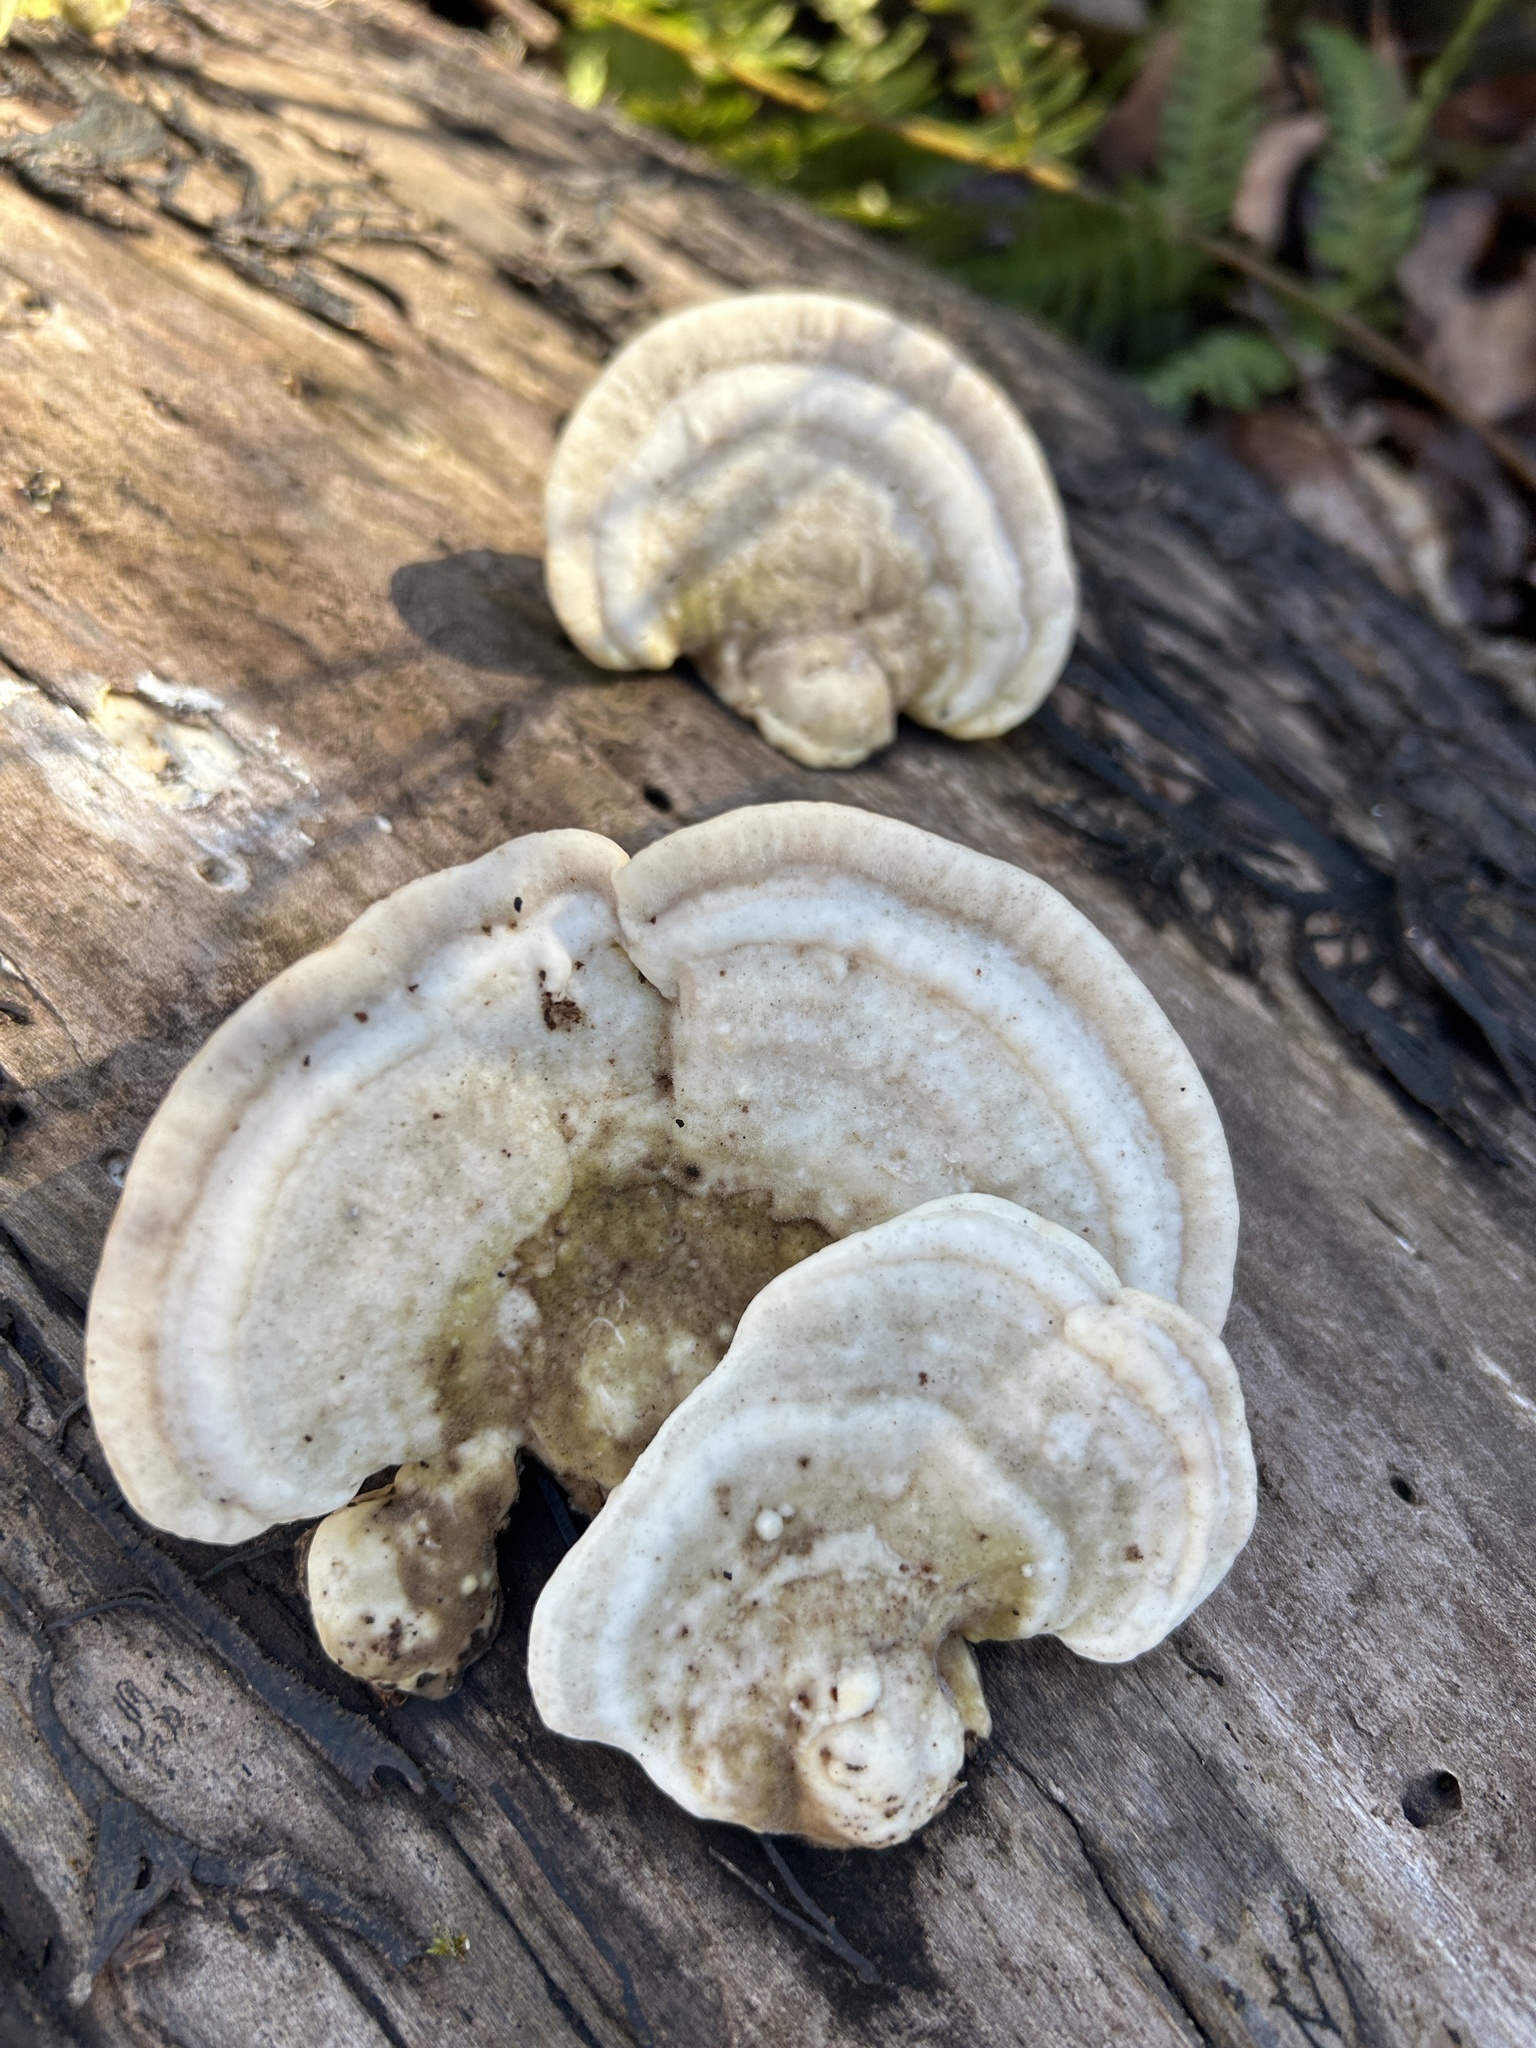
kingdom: Fungi
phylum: Basidiomycota
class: Agaricomycetes
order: Polyporales
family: Polyporaceae
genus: Trametes
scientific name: Trametes gibbosa
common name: Lumpy bracket
